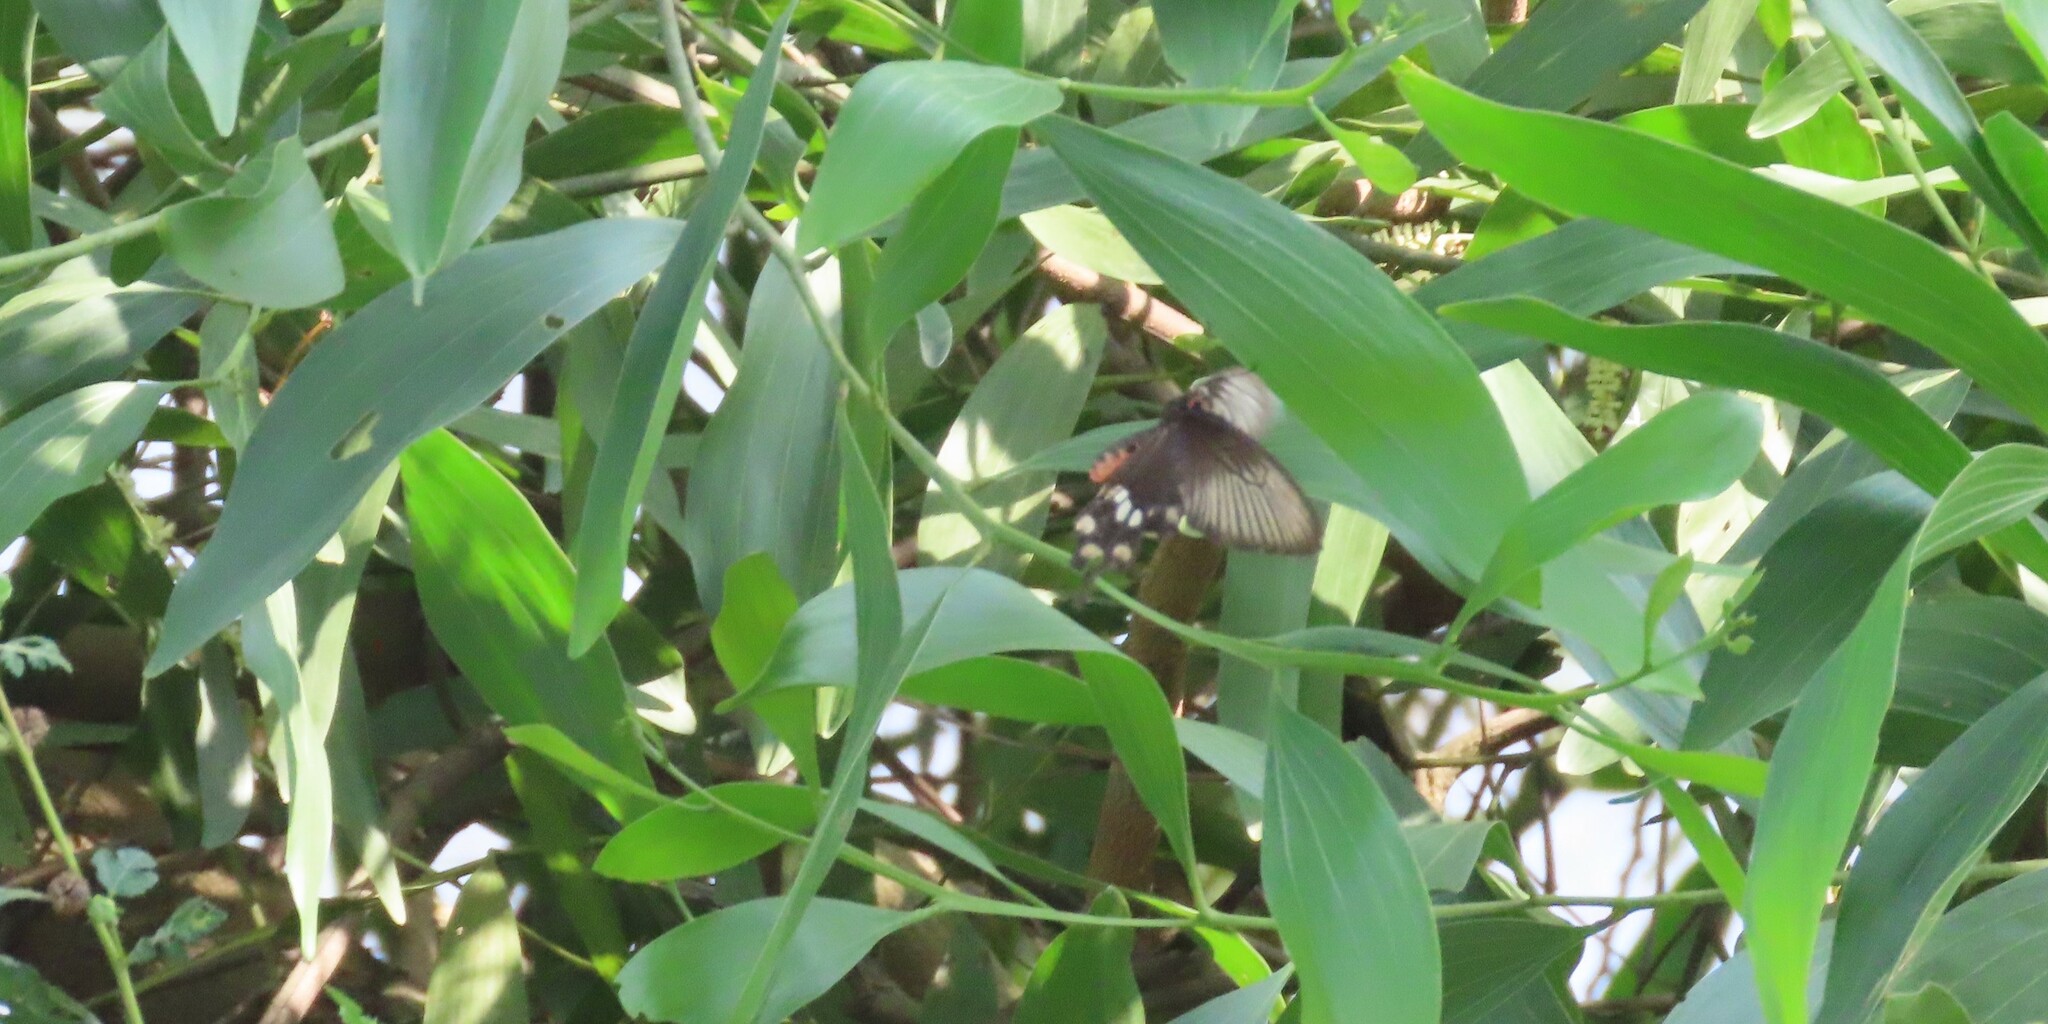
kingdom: Animalia
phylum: Arthropoda
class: Insecta
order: Lepidoptera
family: Papilionidae
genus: Pachliopta
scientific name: Pachliopta aristolochiae
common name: Common rose
